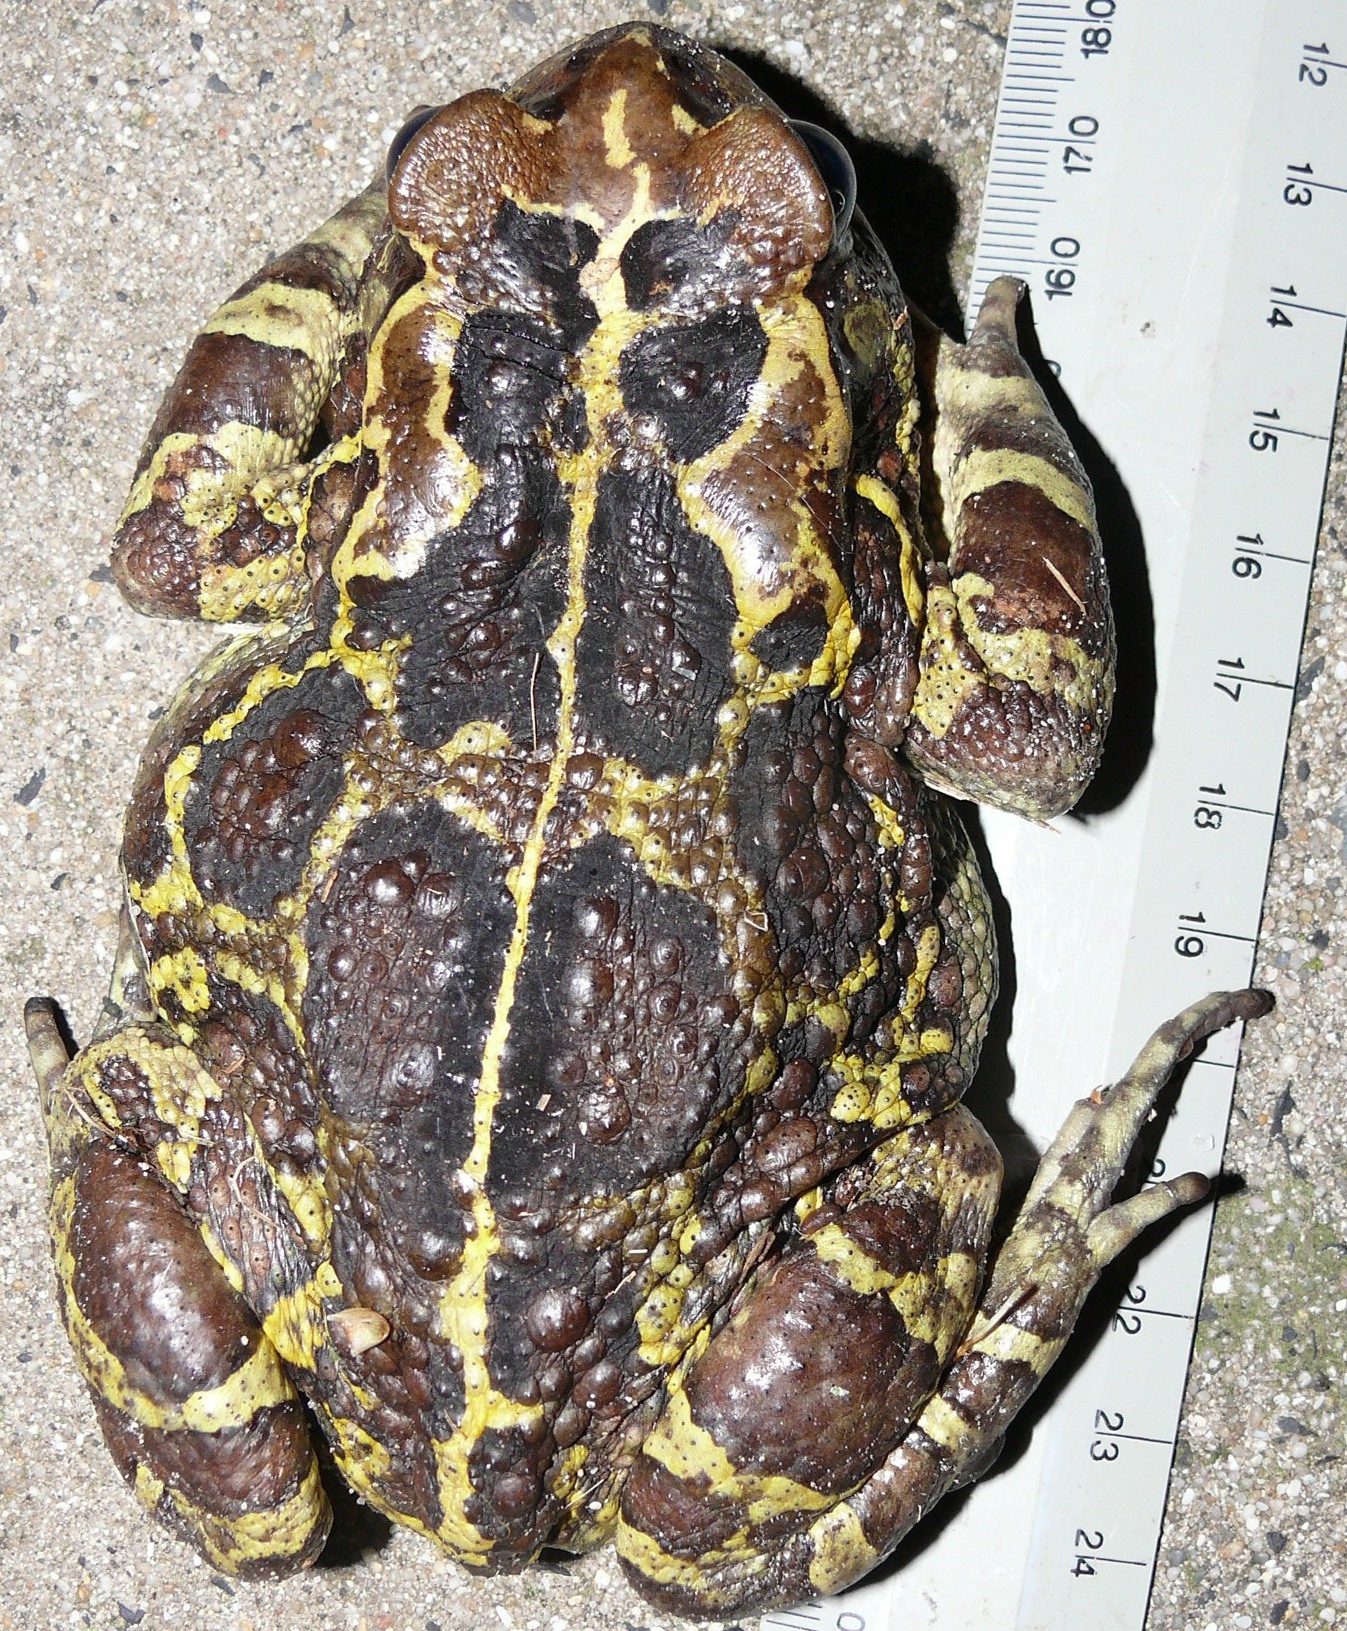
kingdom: Animalia
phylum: Chordata
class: Amphibia
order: Anura
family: Bufonidae
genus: Sclerophrys
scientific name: Sclerophrys pantherina
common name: Panther toad
